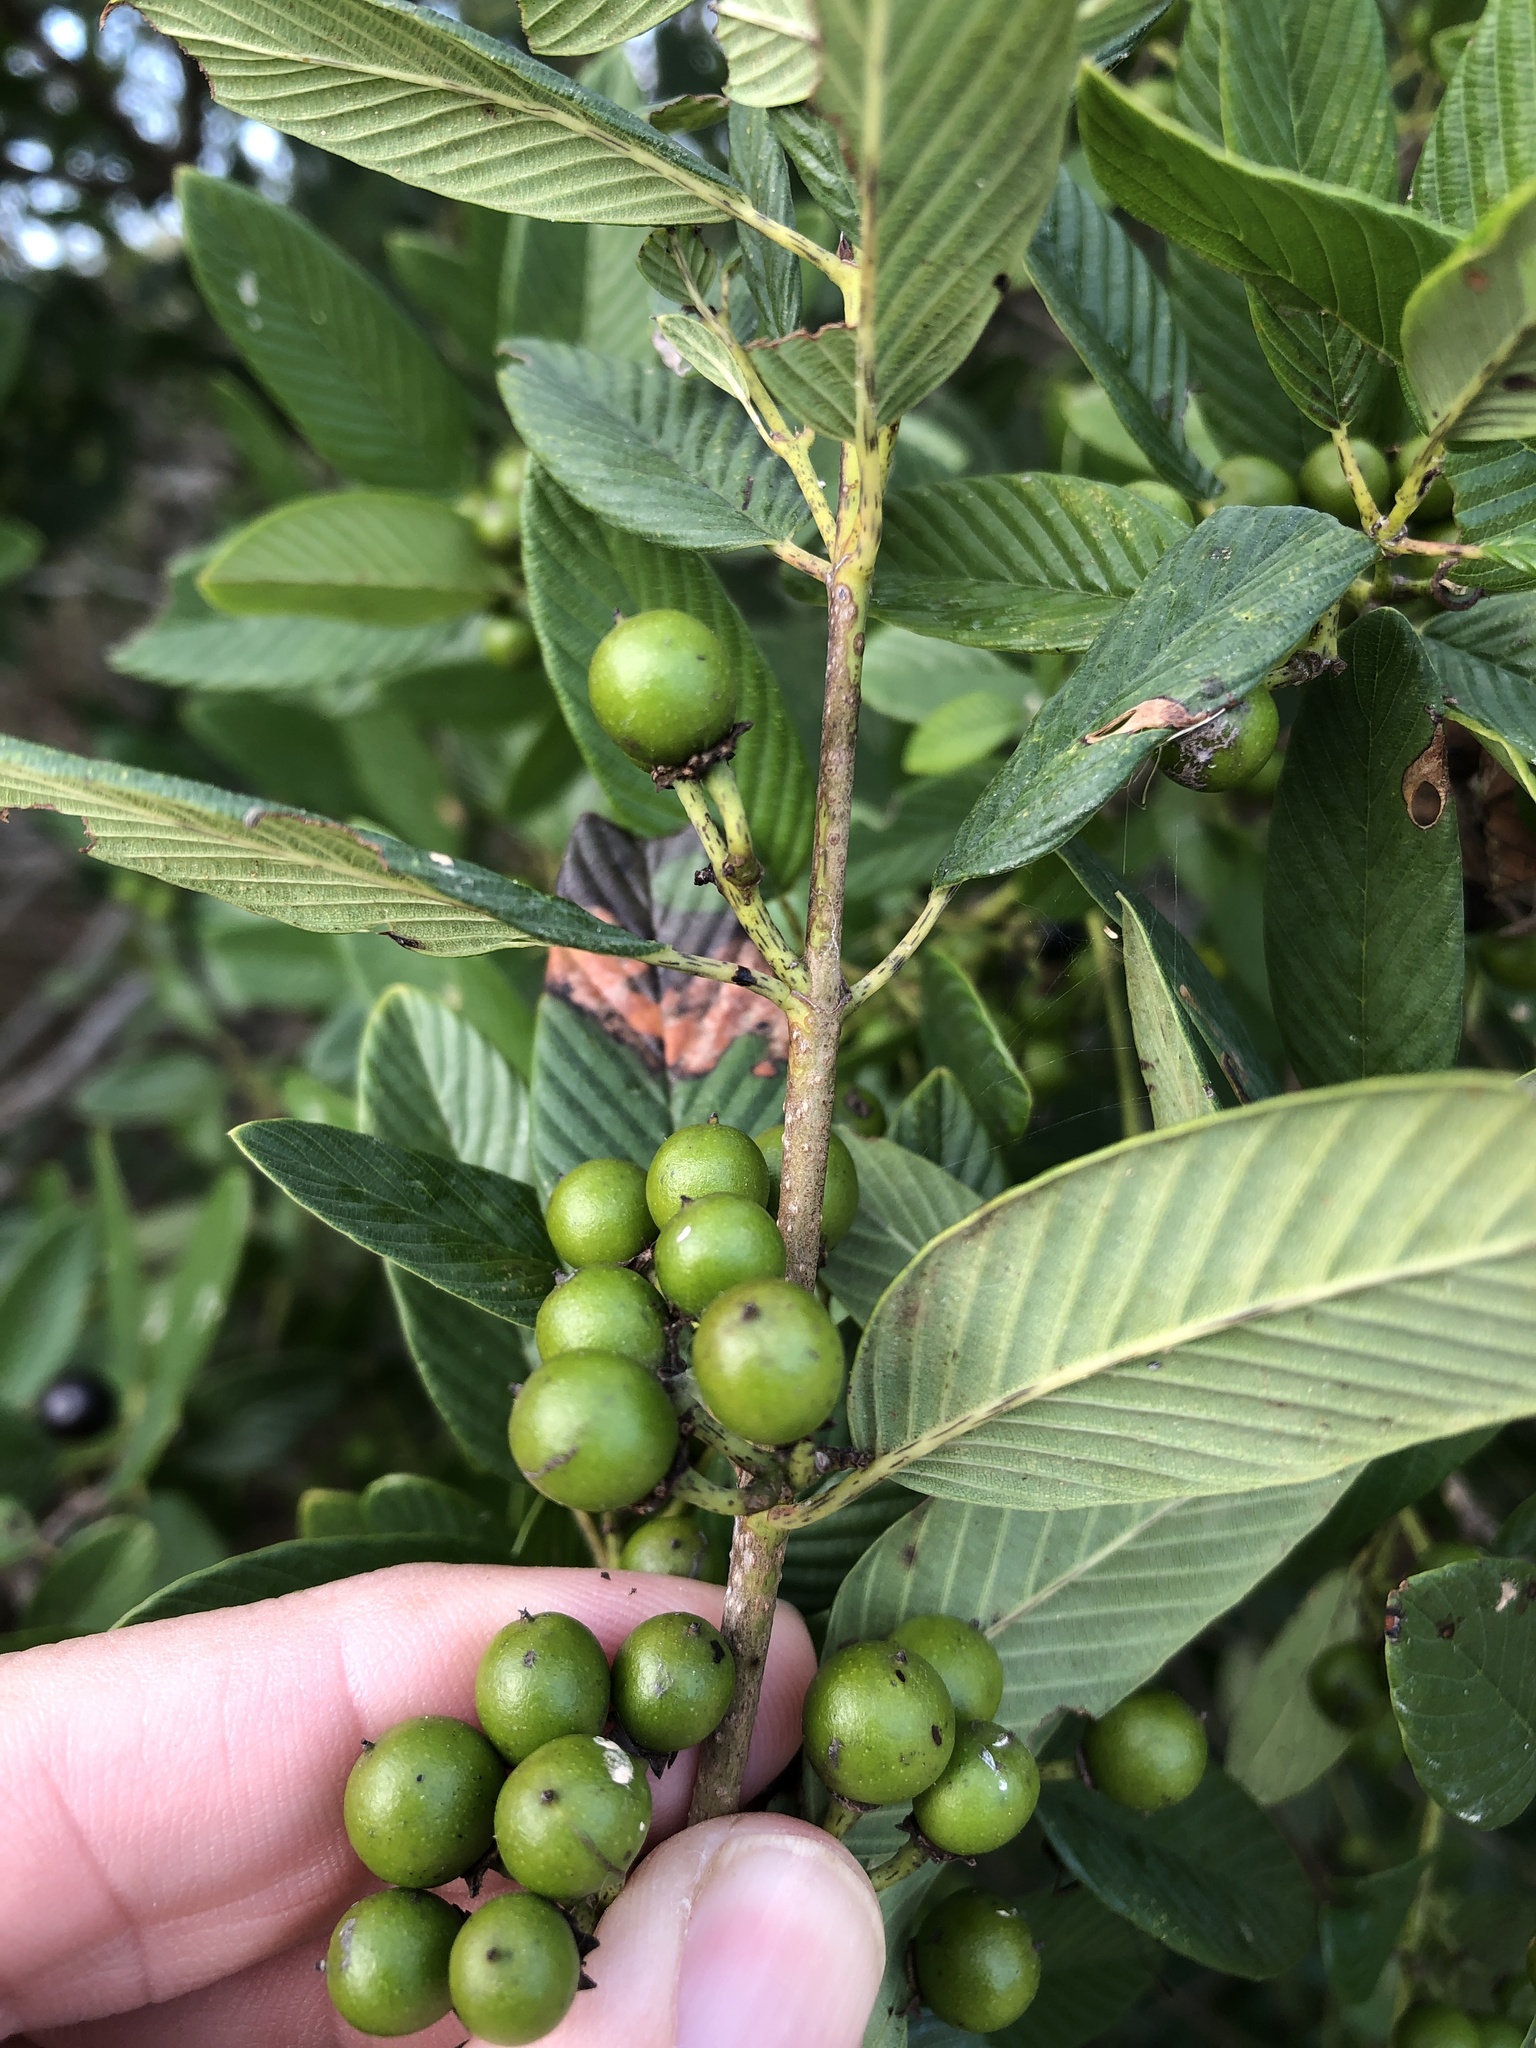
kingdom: Plantae
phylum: Tracheophyta
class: Magnoliopsida
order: Rosales
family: Rhamnaceae
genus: Karwinskia
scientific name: Karwinskia humboldtiana
